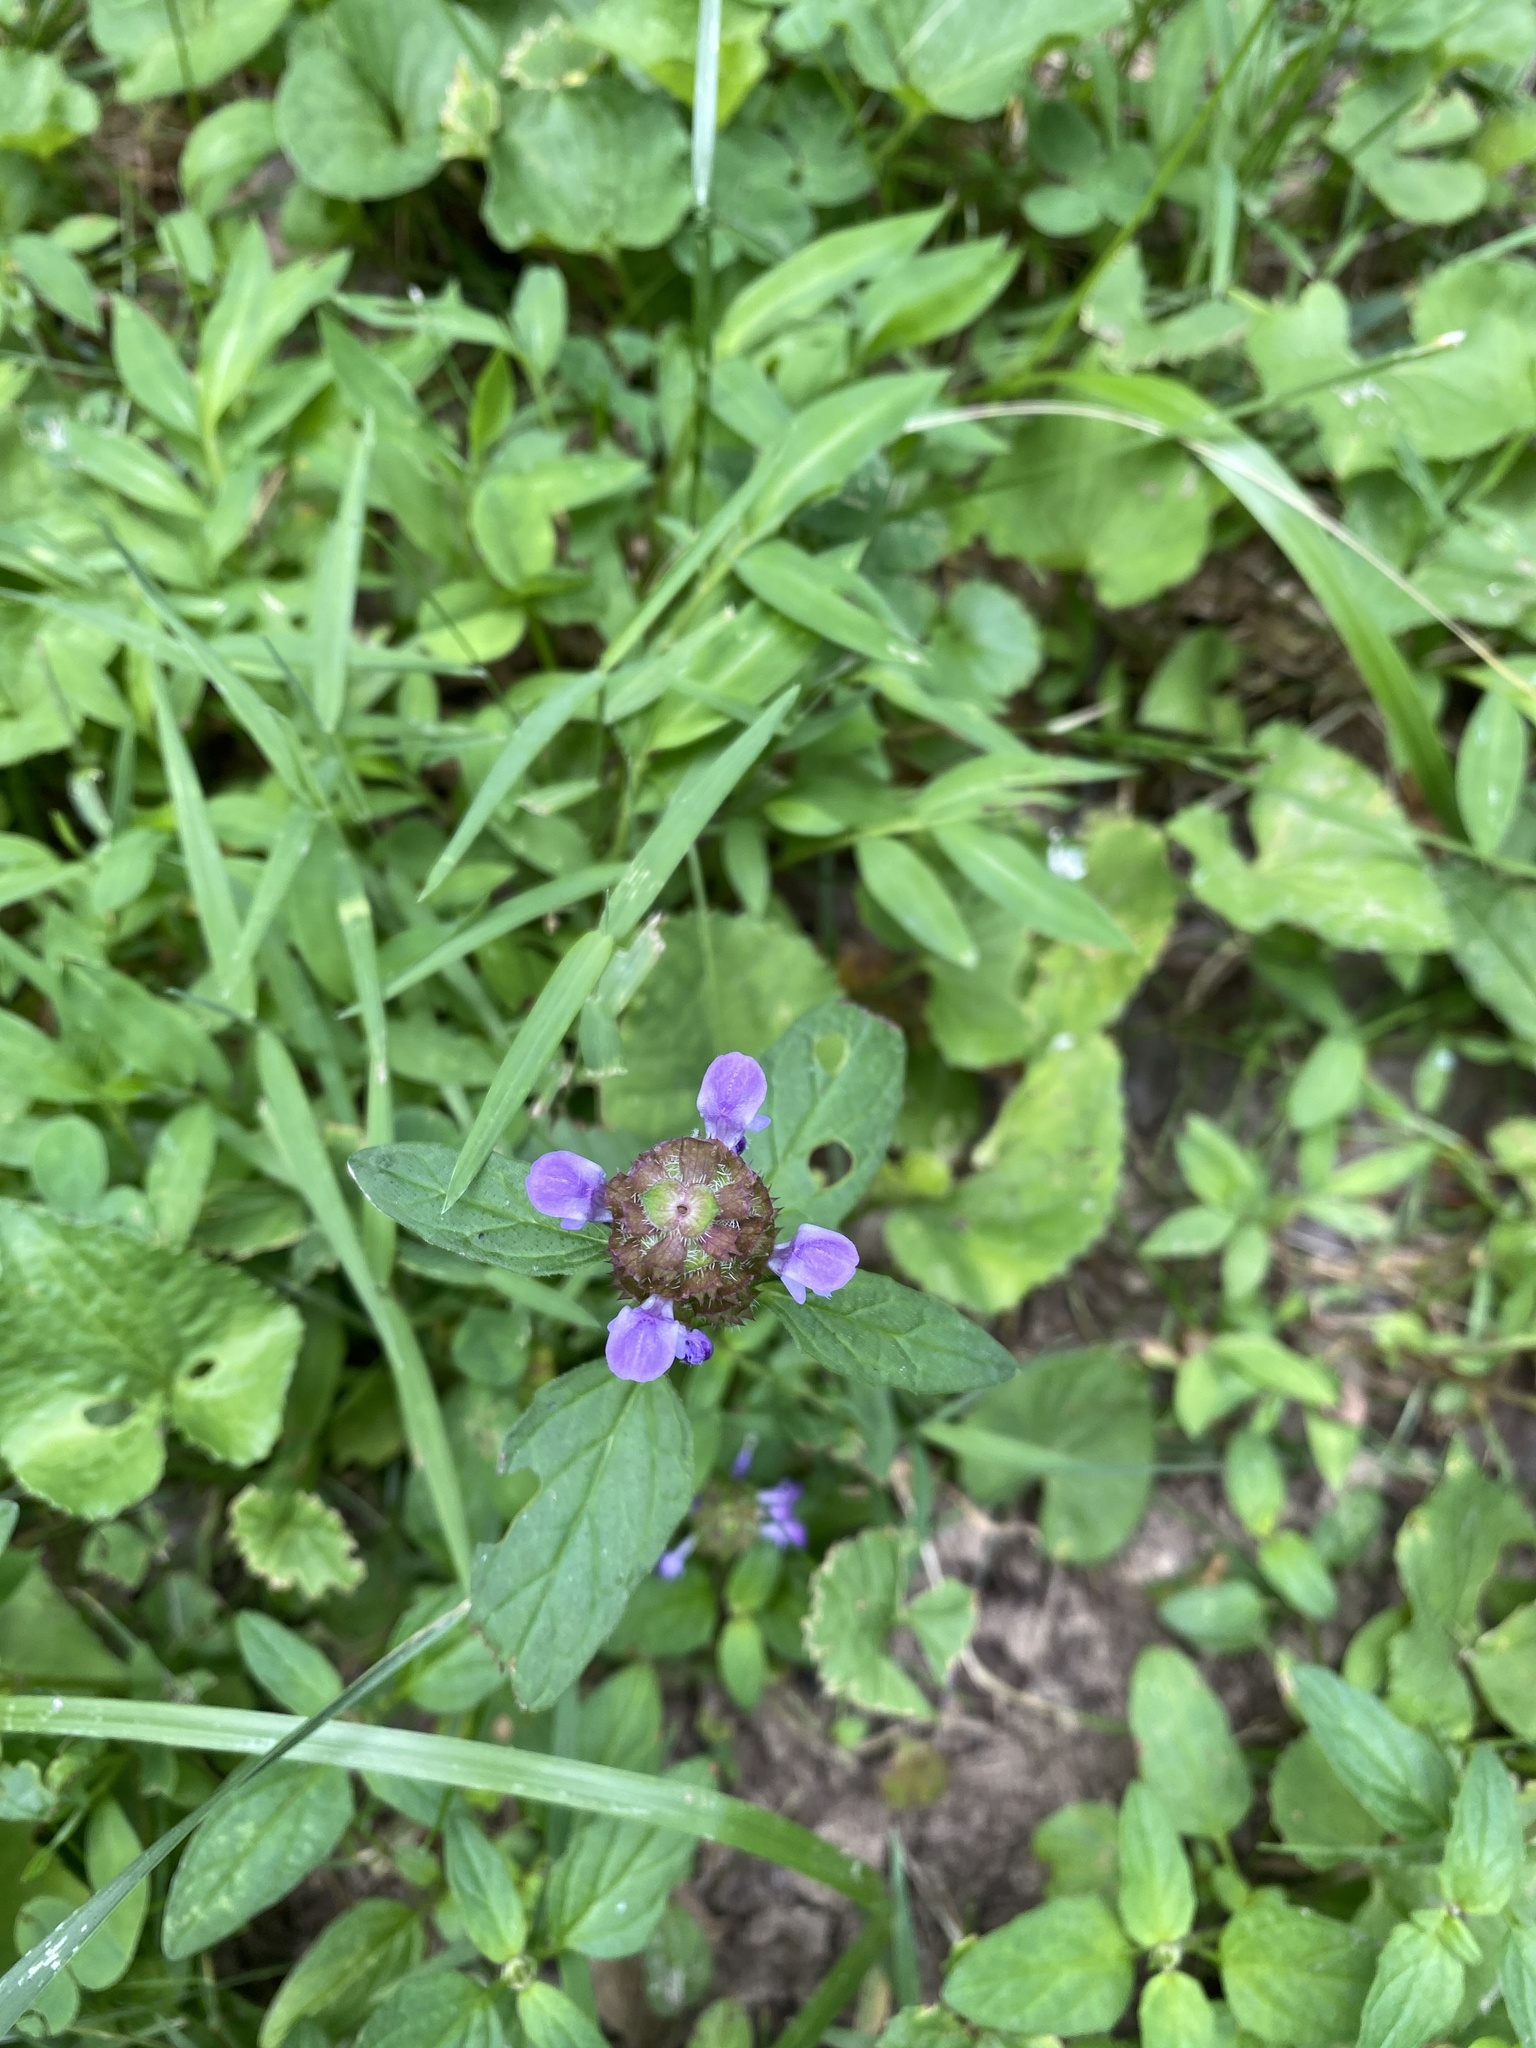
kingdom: Plantae
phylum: Tracheophyta
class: Magnoliopsida
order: Lamiales
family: Lamiaceae
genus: Prunella
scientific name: Prunella vulgaris
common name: Heal-all
